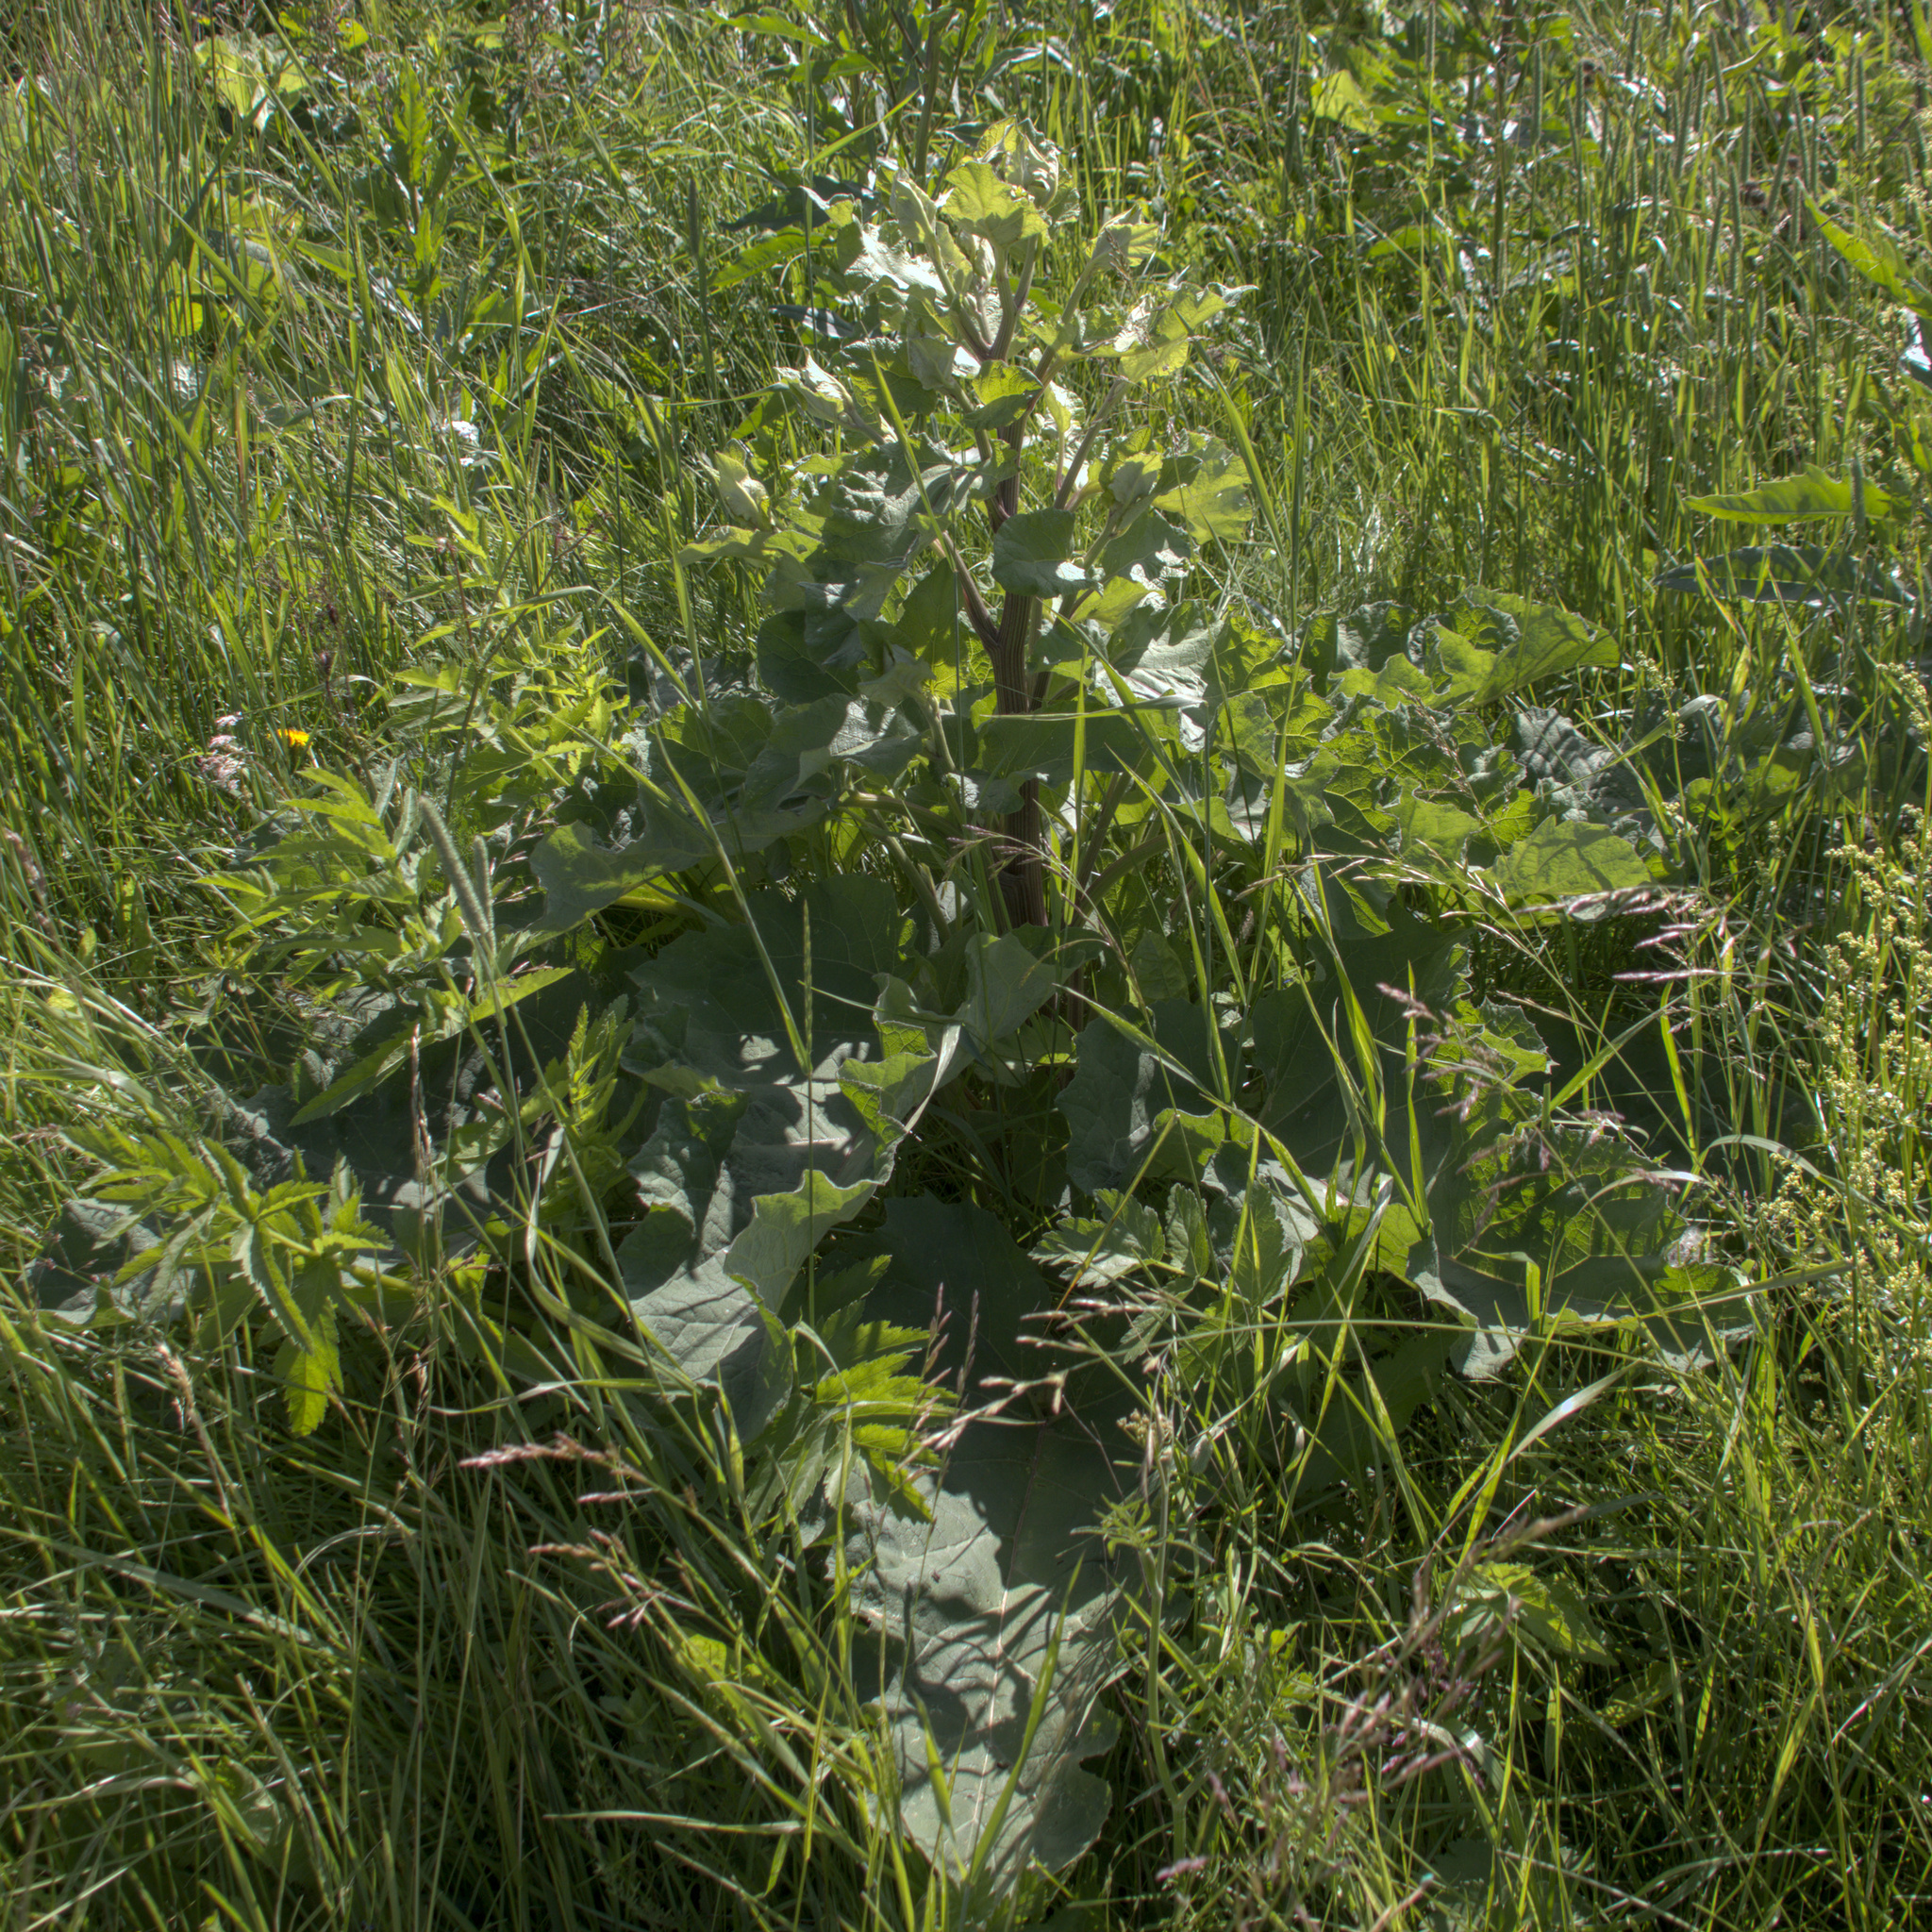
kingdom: Plantae
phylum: Tracheophyta
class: Magnoliopsida
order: Asterales
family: Asteraceae
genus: Arctium
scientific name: Arctium tomentosum
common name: Woolly burdock
